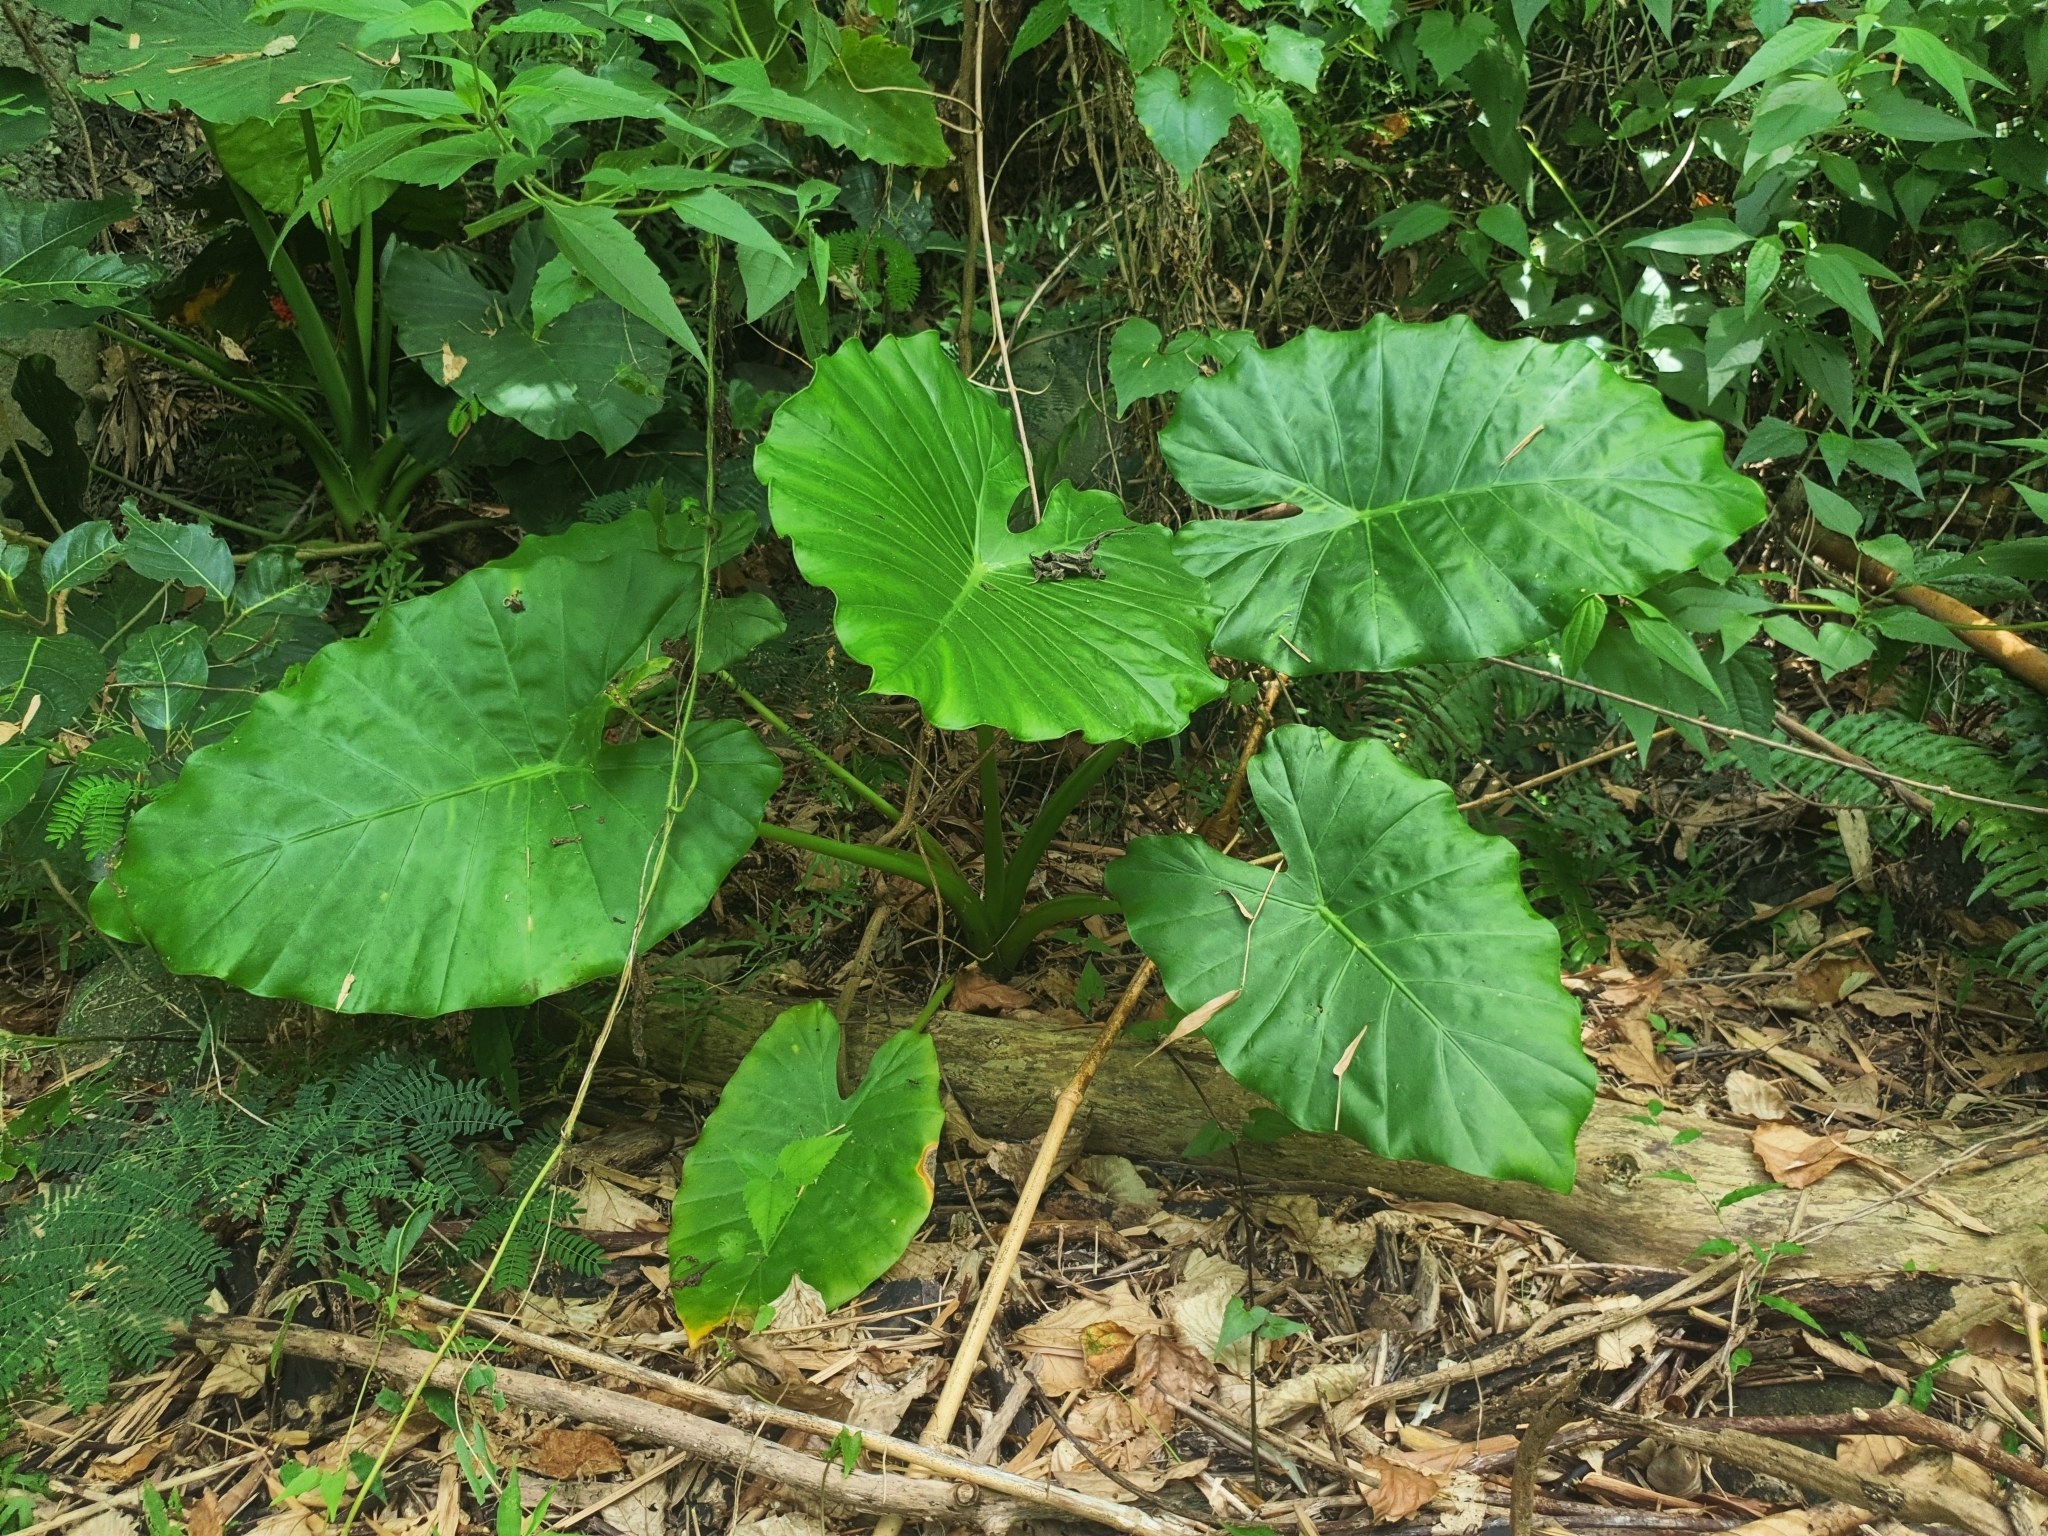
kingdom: Plantae
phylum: Tracheophyta
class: Liliopsida
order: Alismatales
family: Araceae
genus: Alocasia
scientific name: Alocasia odora
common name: Asian taro
